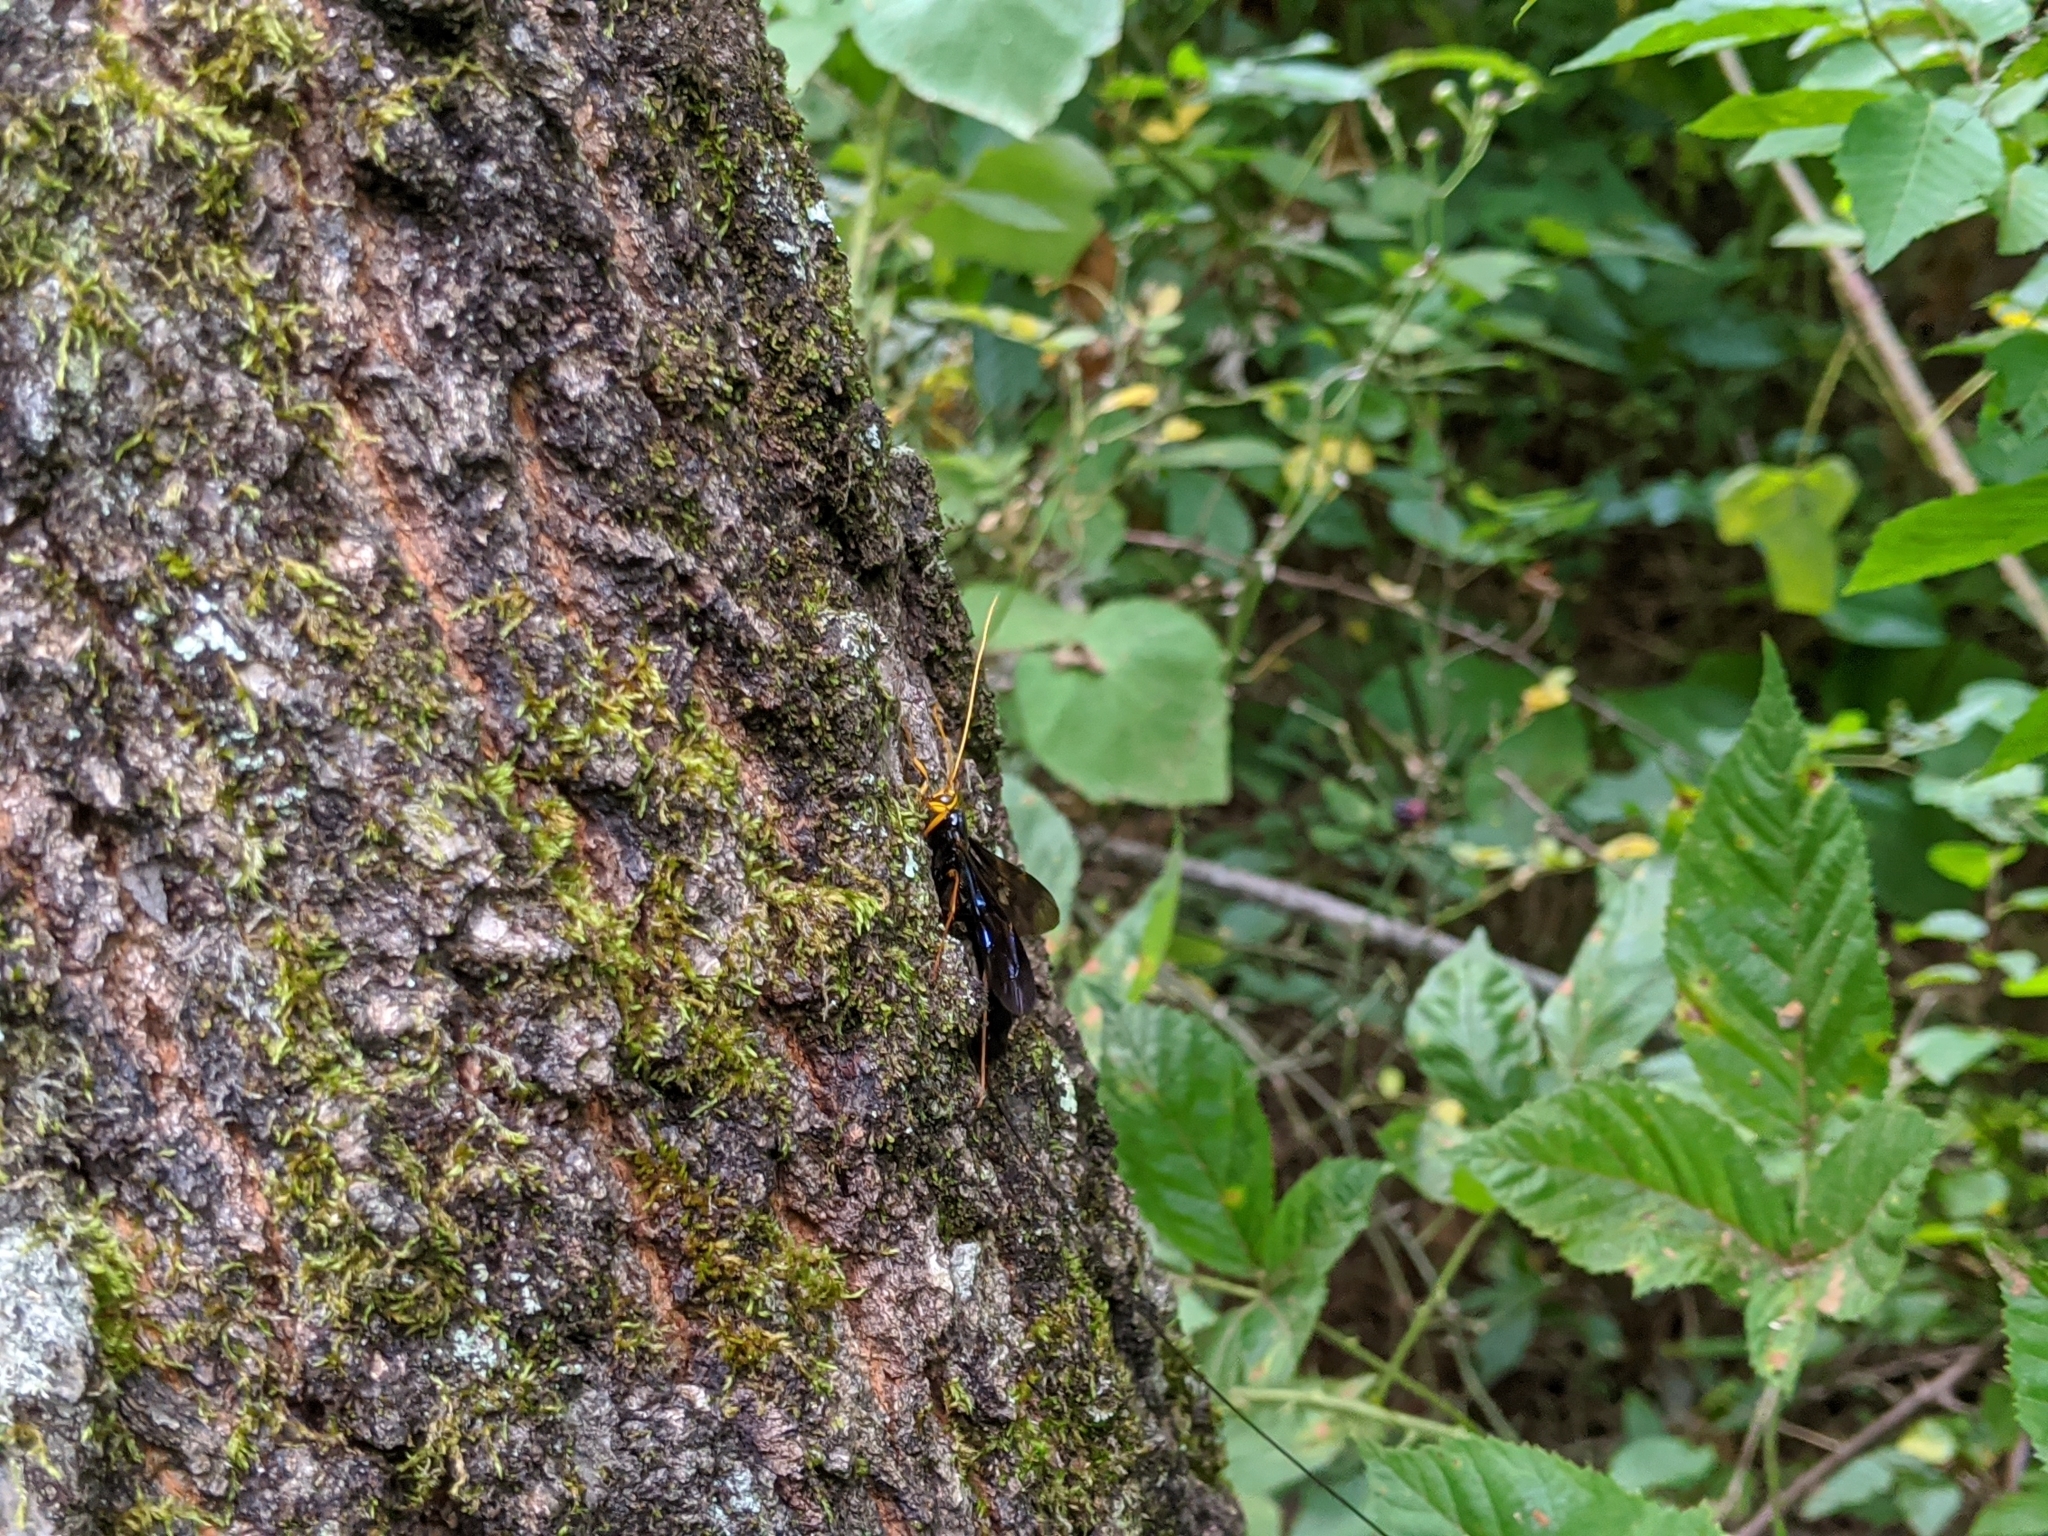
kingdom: Animalia
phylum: Arthropoda
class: Insecta
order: Hymenoptera
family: Ichneumonidae
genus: Megarhyssa
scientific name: Megarhyssa atrata
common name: Black giant ichneumonid wasp
